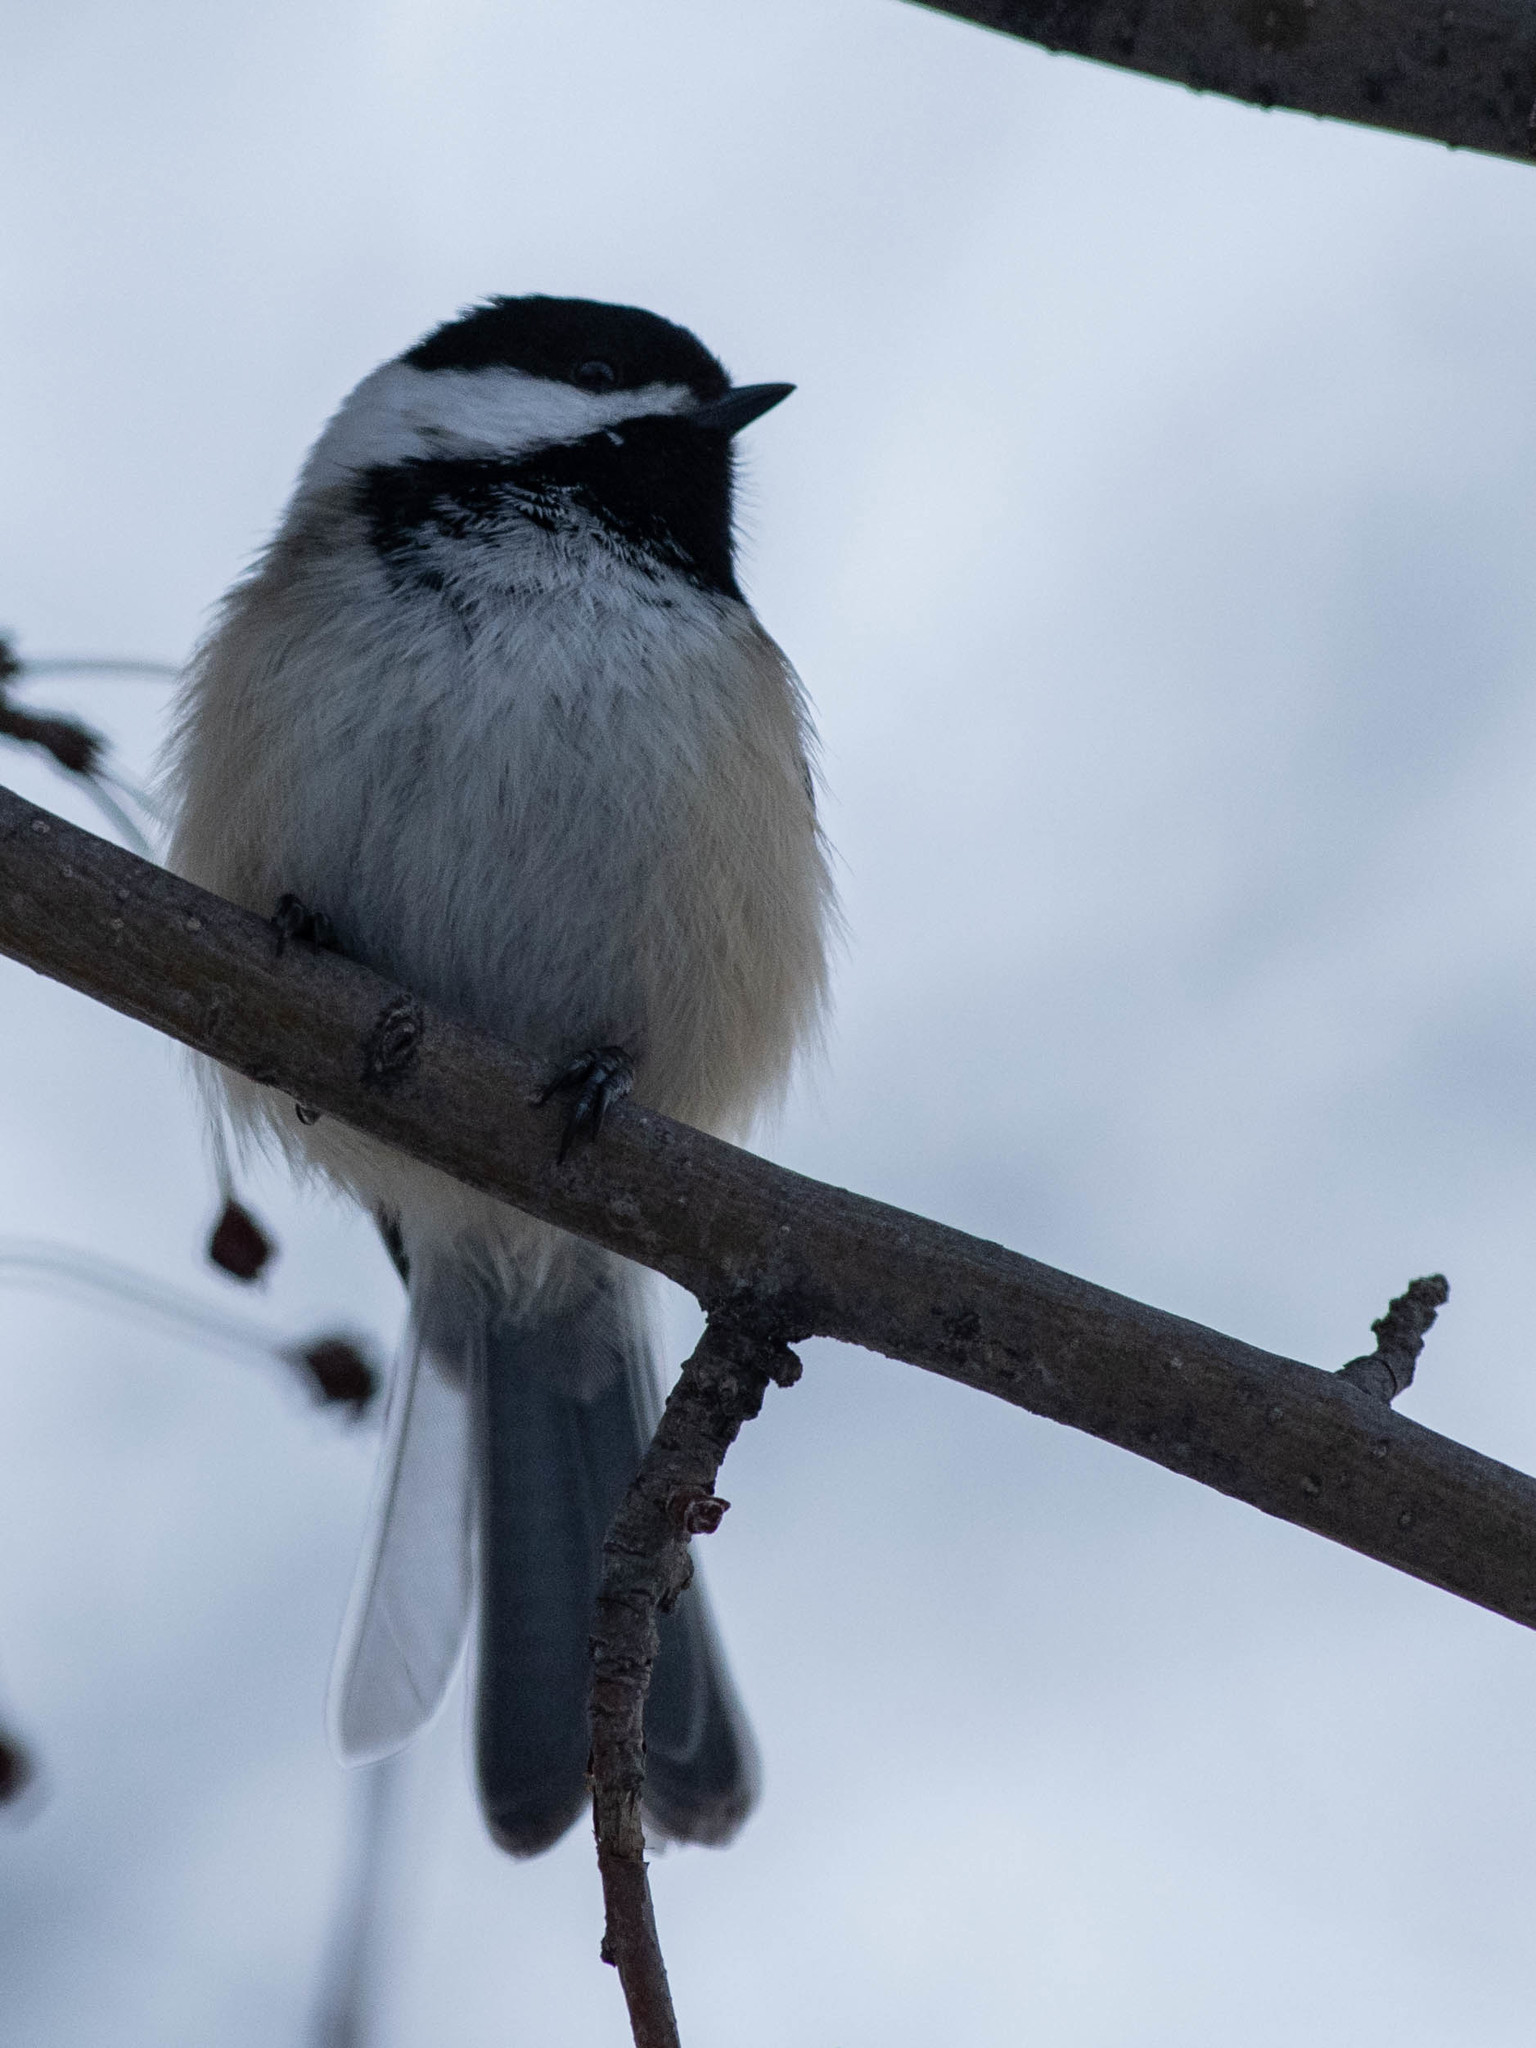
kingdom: Animalia
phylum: Chordata
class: Aves
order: Passeriformes
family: Paridae
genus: Poecile
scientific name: Poecile atricapillus
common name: Black-capped chickadee
